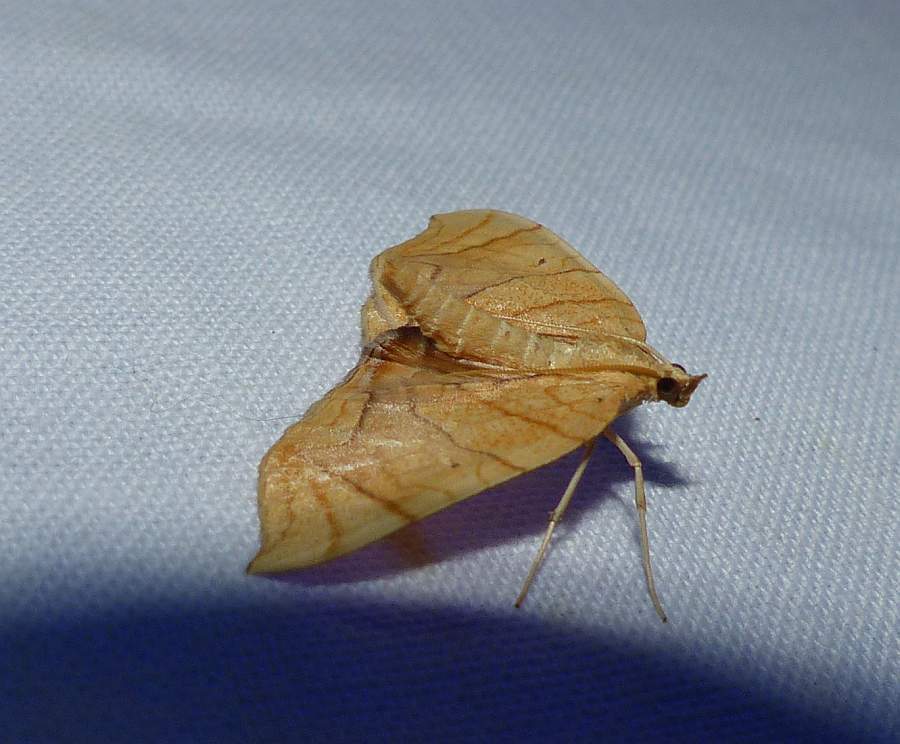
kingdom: Animalia
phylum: Arthropoda
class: Insecta
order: Lepidoptera
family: Geometridae
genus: Eulithis
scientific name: Eulithis
